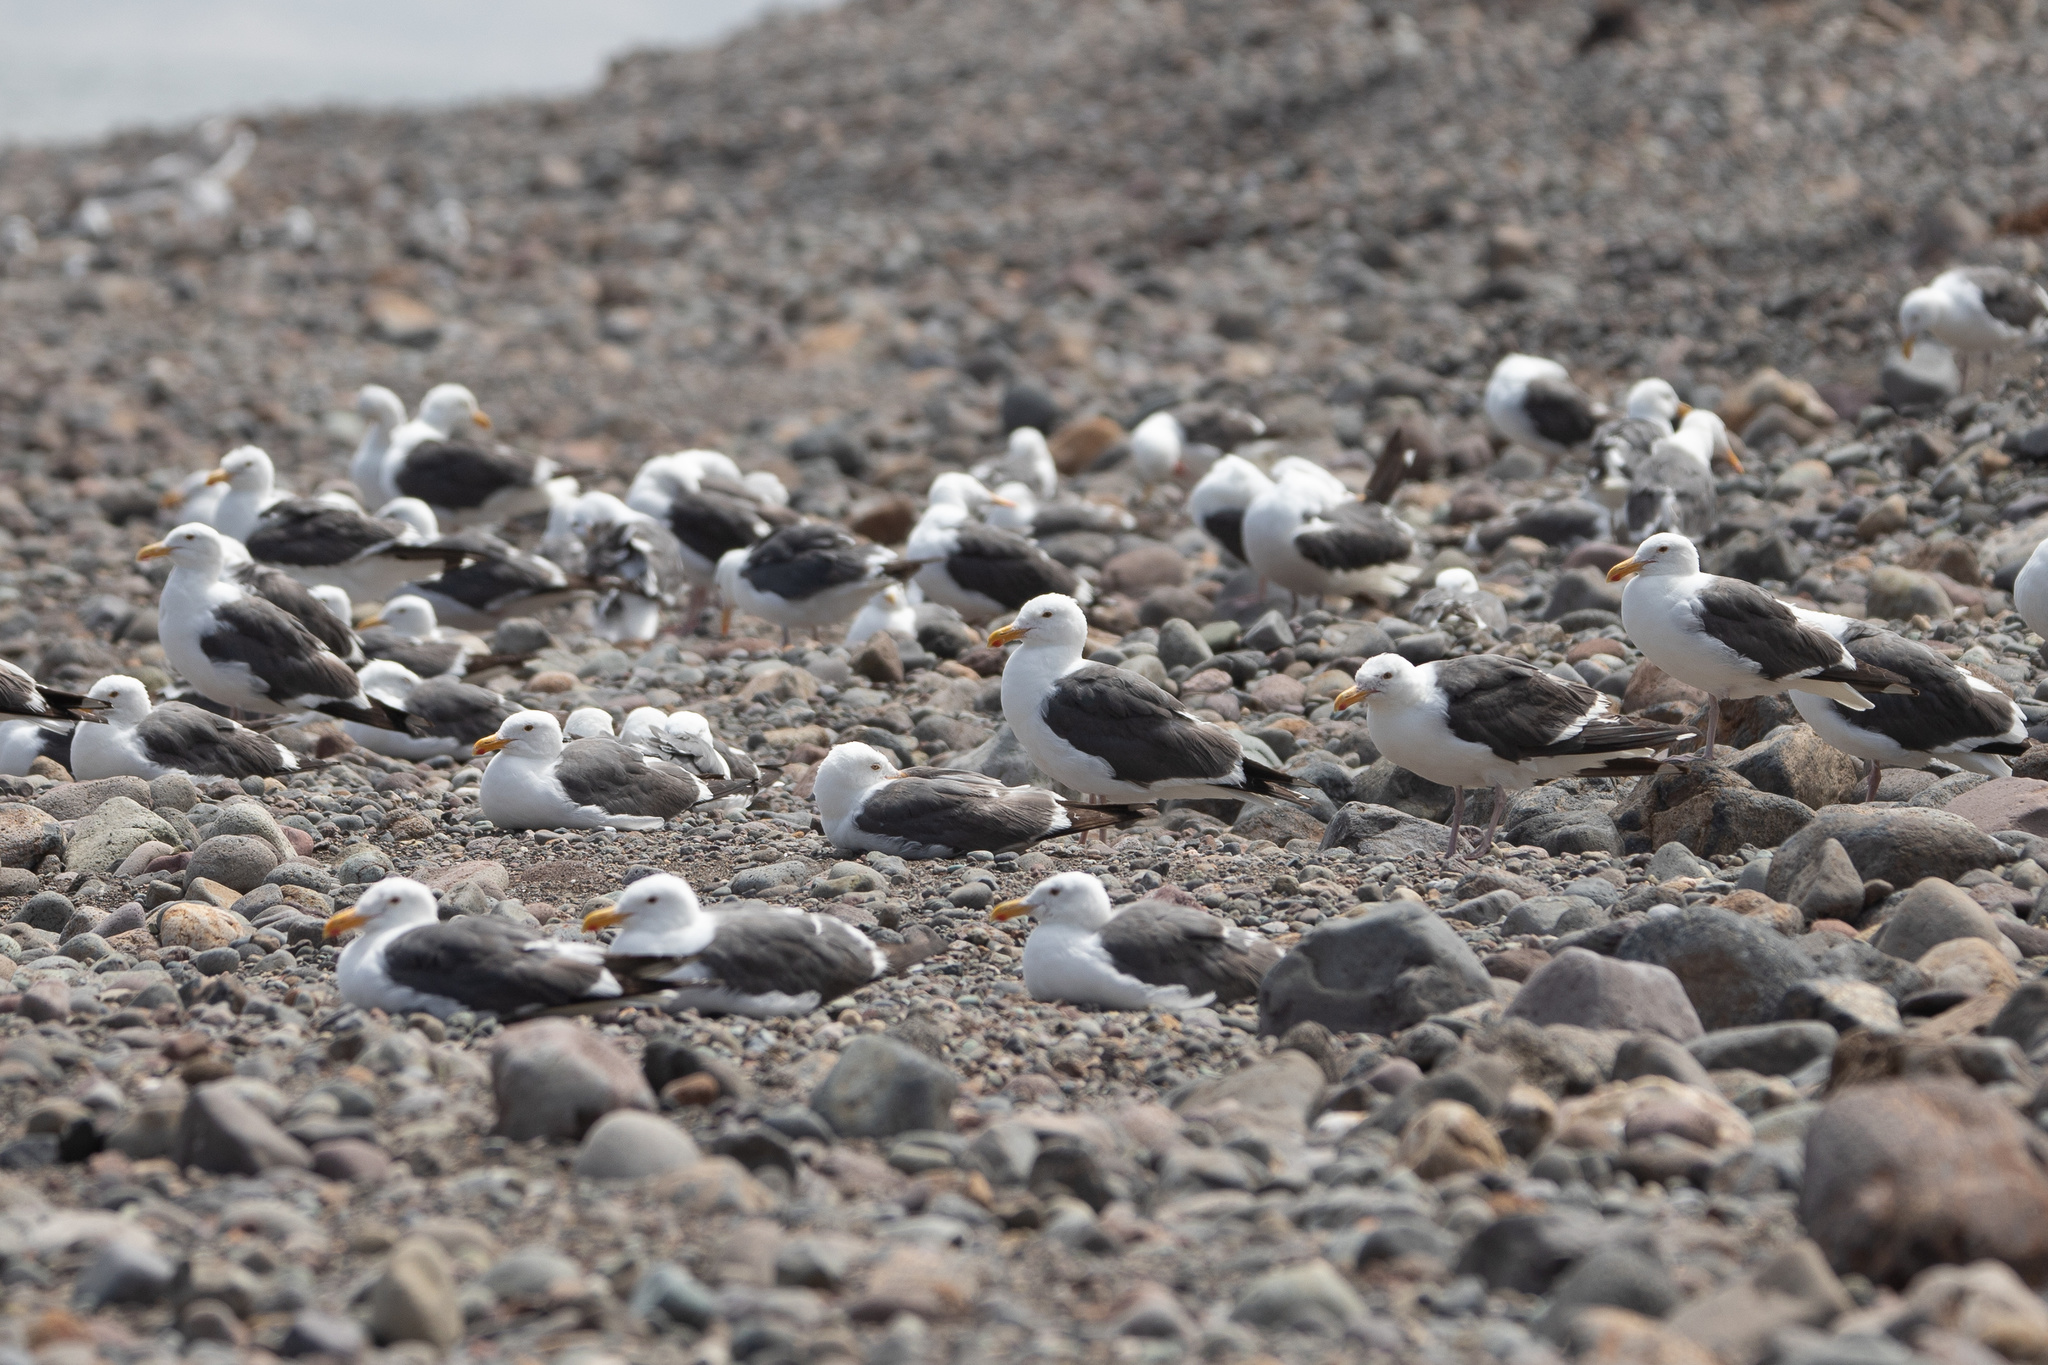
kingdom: Animalia
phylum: Chordata
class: Aves
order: Charadriiformes
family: Laridae
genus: Larus
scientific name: Larus occidentalis
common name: Western gull
